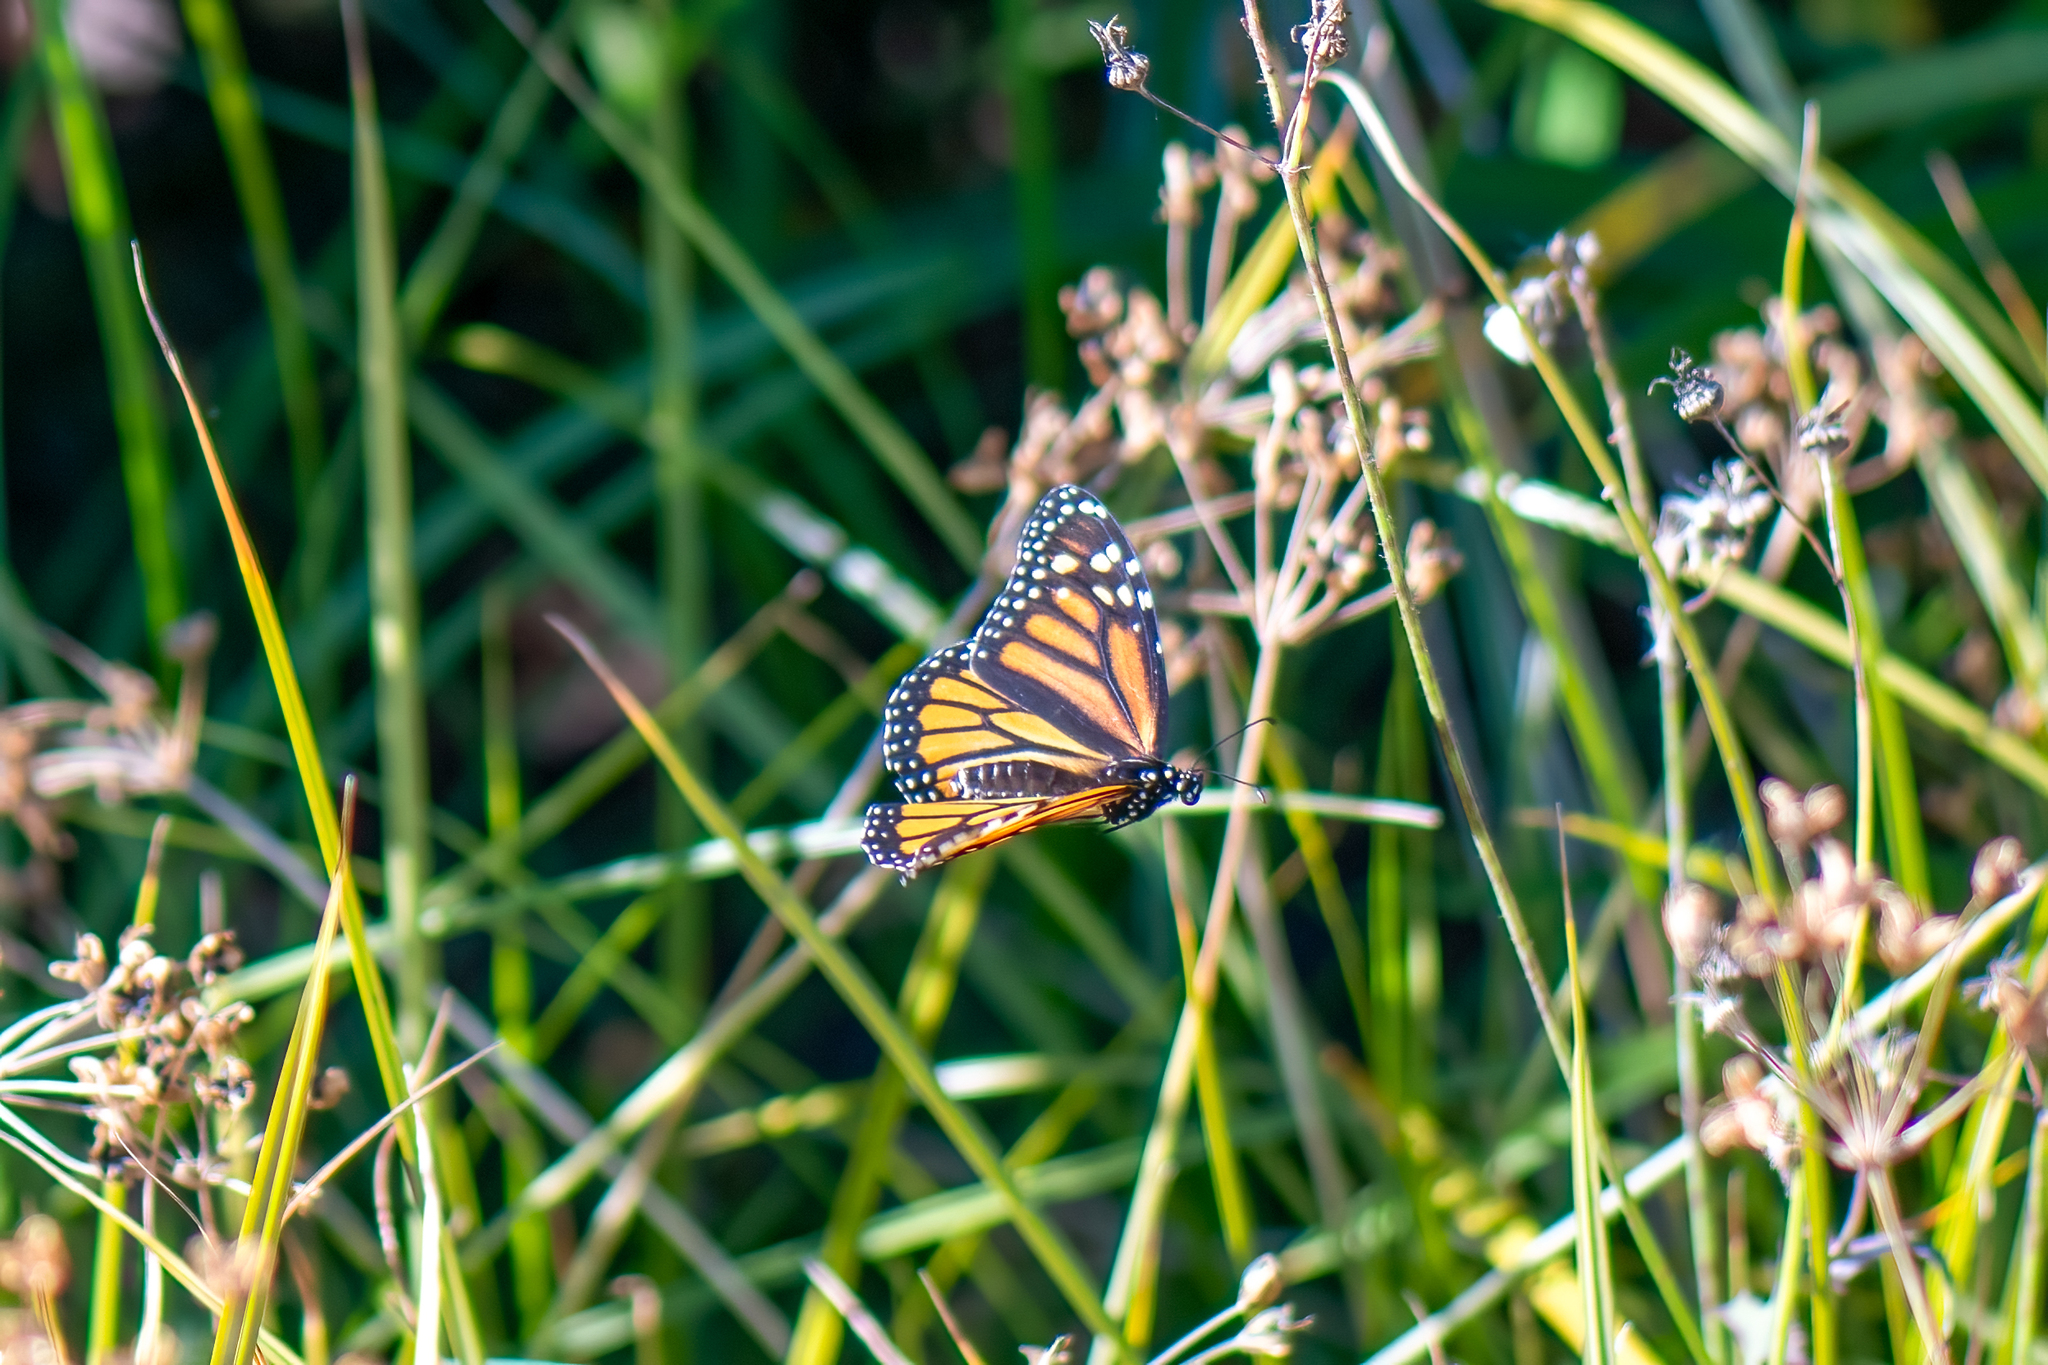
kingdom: Animalia
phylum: Arthropoda
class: Insecta
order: Lepidoptera
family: Nymphalidae
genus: Danaus
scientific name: Danaus plexippus
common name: Monarch
